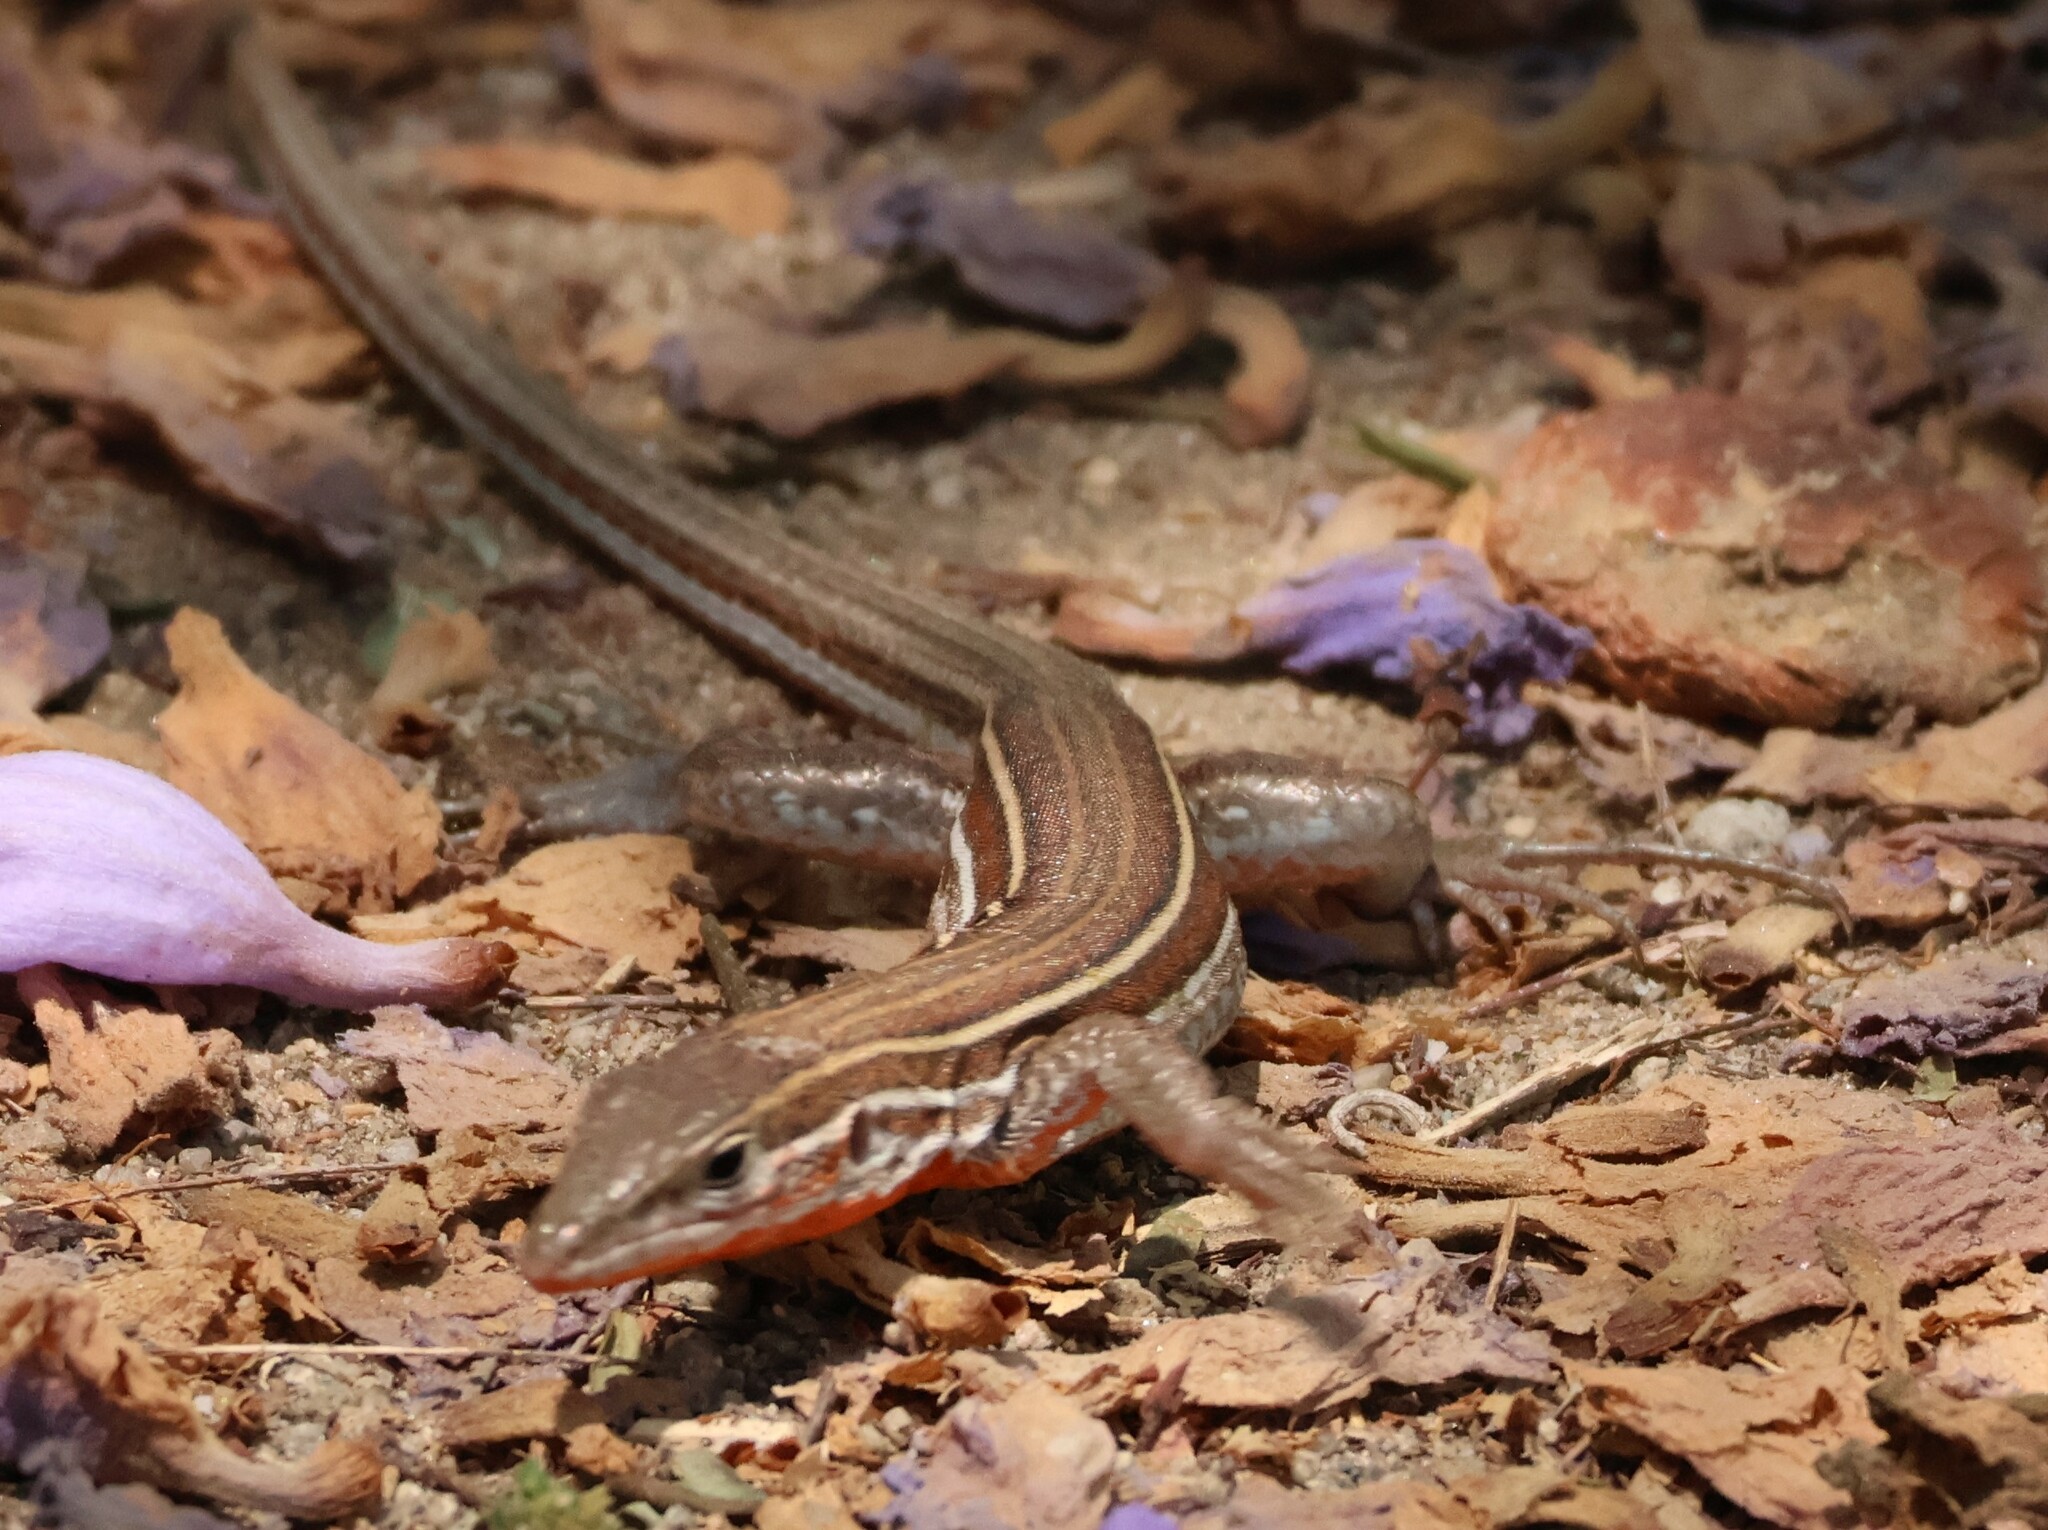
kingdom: Animalia
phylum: Chordata
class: Squamata
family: Teiidae
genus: Aspidoscelis
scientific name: Aspidoscelis hyperythrus
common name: Orange-throated race-runner
